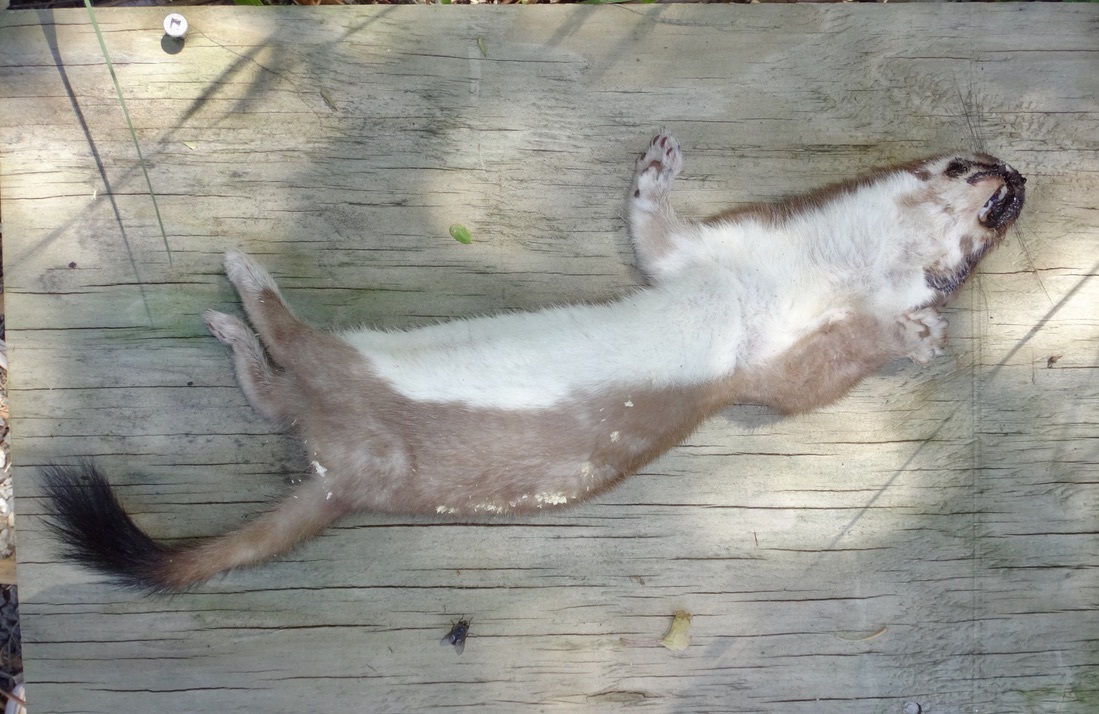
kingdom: Animalia
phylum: Chordata
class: Mammalia
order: Carnivora
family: Mustelidae
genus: Mustela
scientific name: Mustela erminea
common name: Stoat
